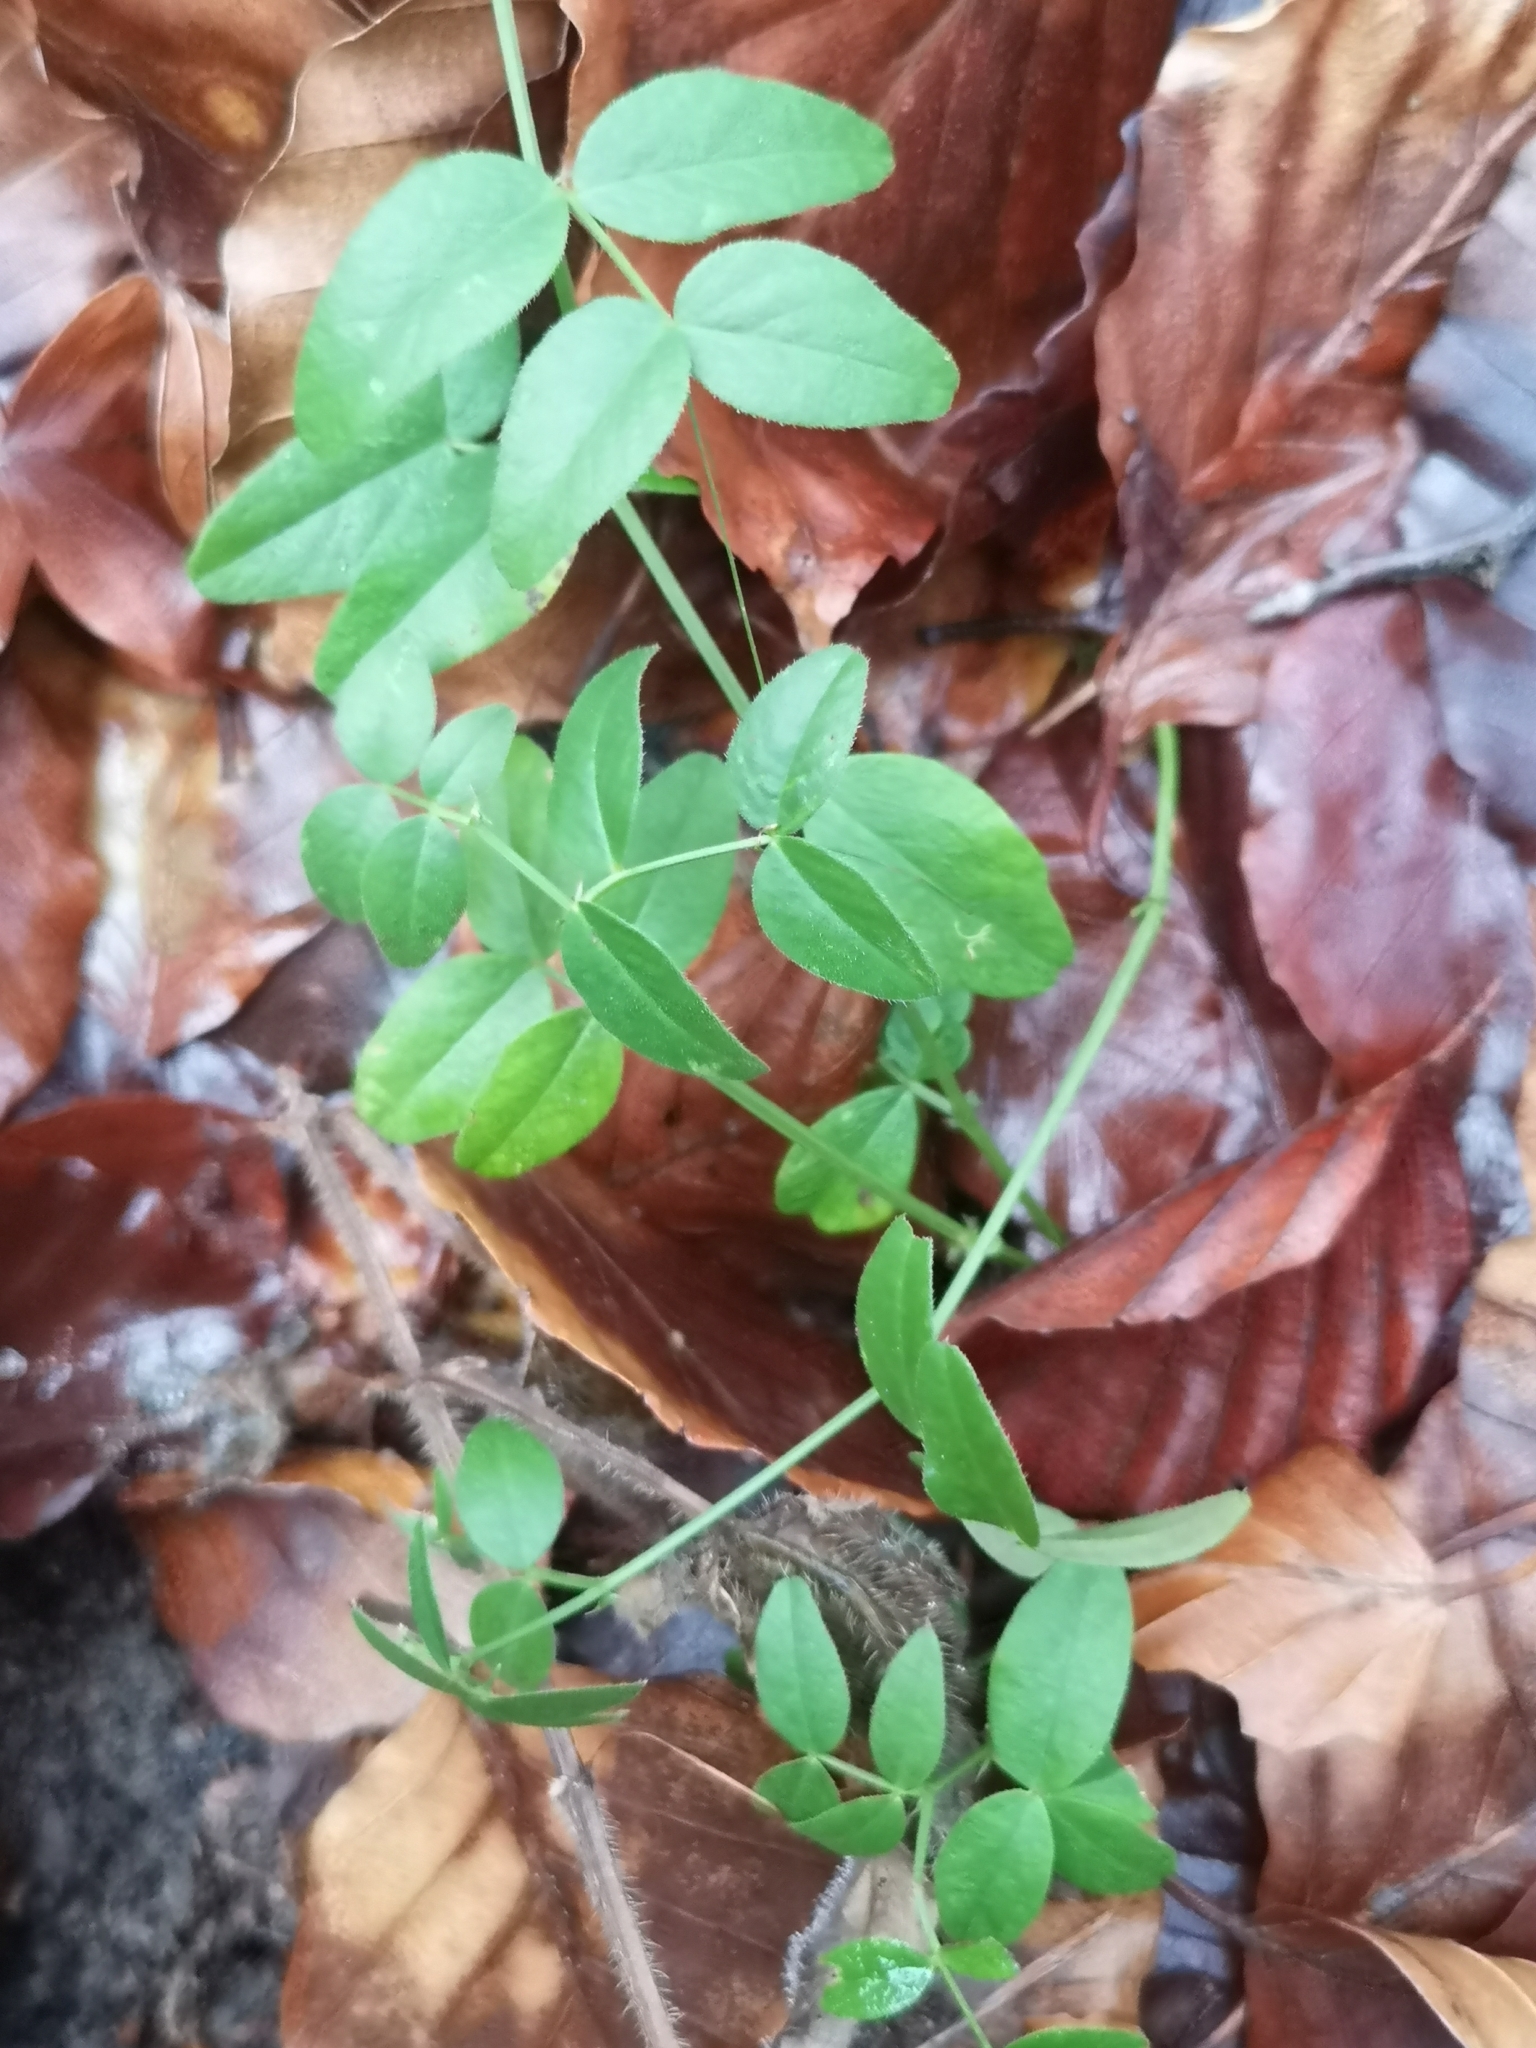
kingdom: Plantae
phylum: Tracheophyta
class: Magnoliopsida
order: Fabales
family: Fabaceae
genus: Vicia
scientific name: Vicia sepium
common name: Bush vetch
